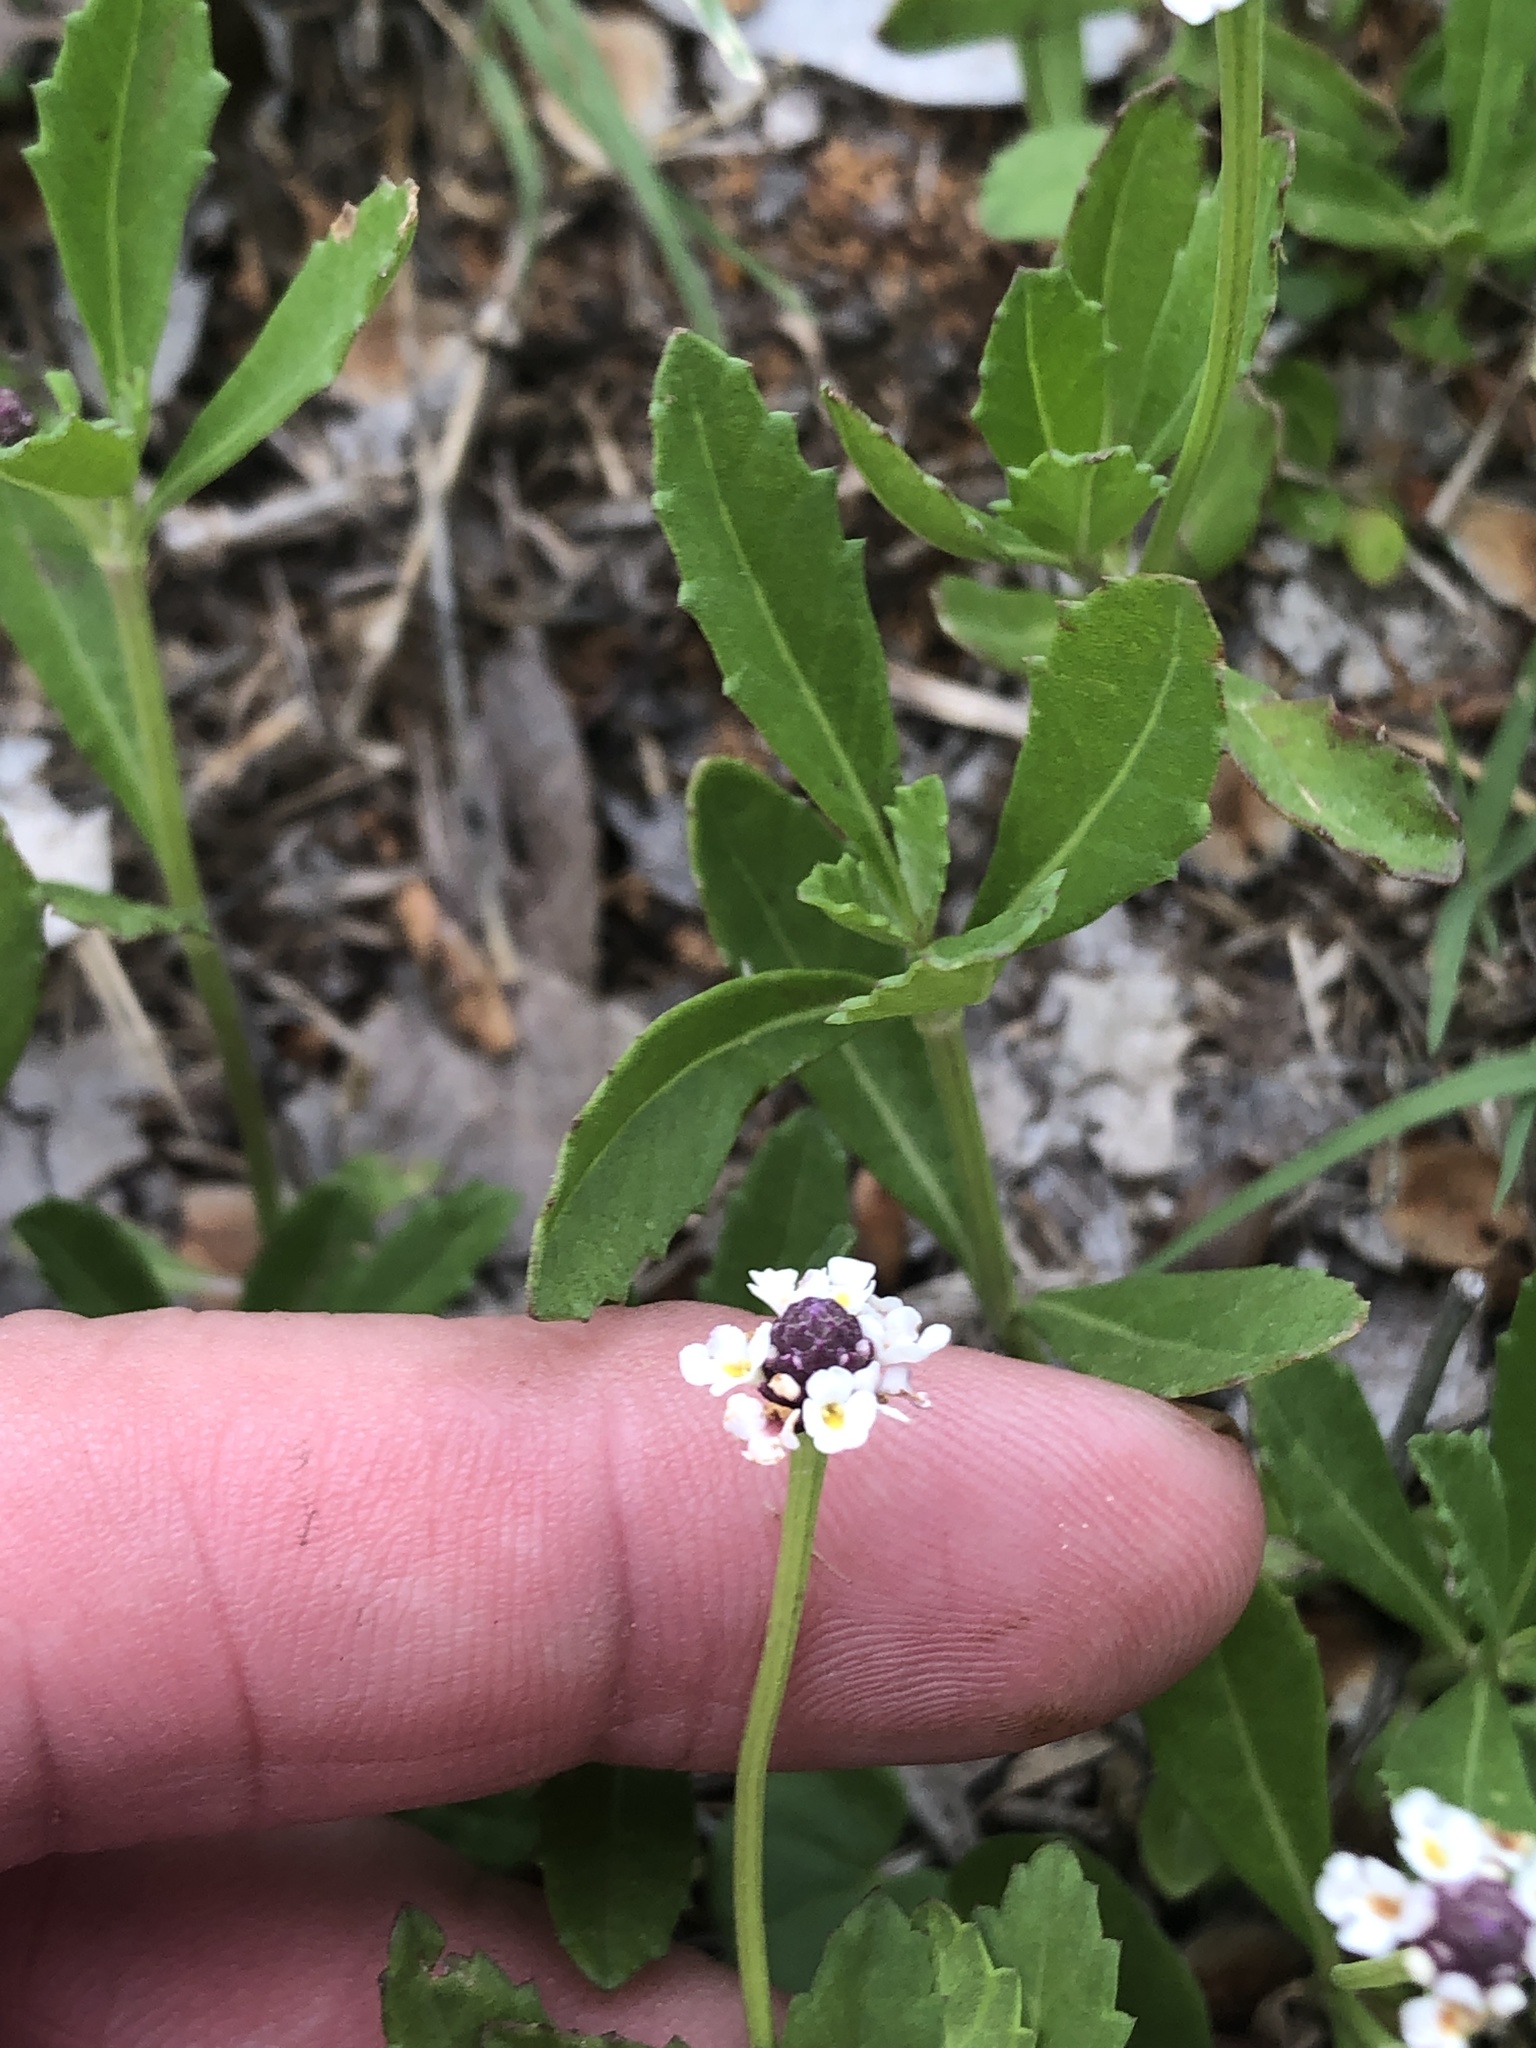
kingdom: Plantae
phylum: Tracheophyta
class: Magnoliopsida
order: Lamiales
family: Verbenaceae
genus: Phyla
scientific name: Phyla nodiflora
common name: Frogfruit
